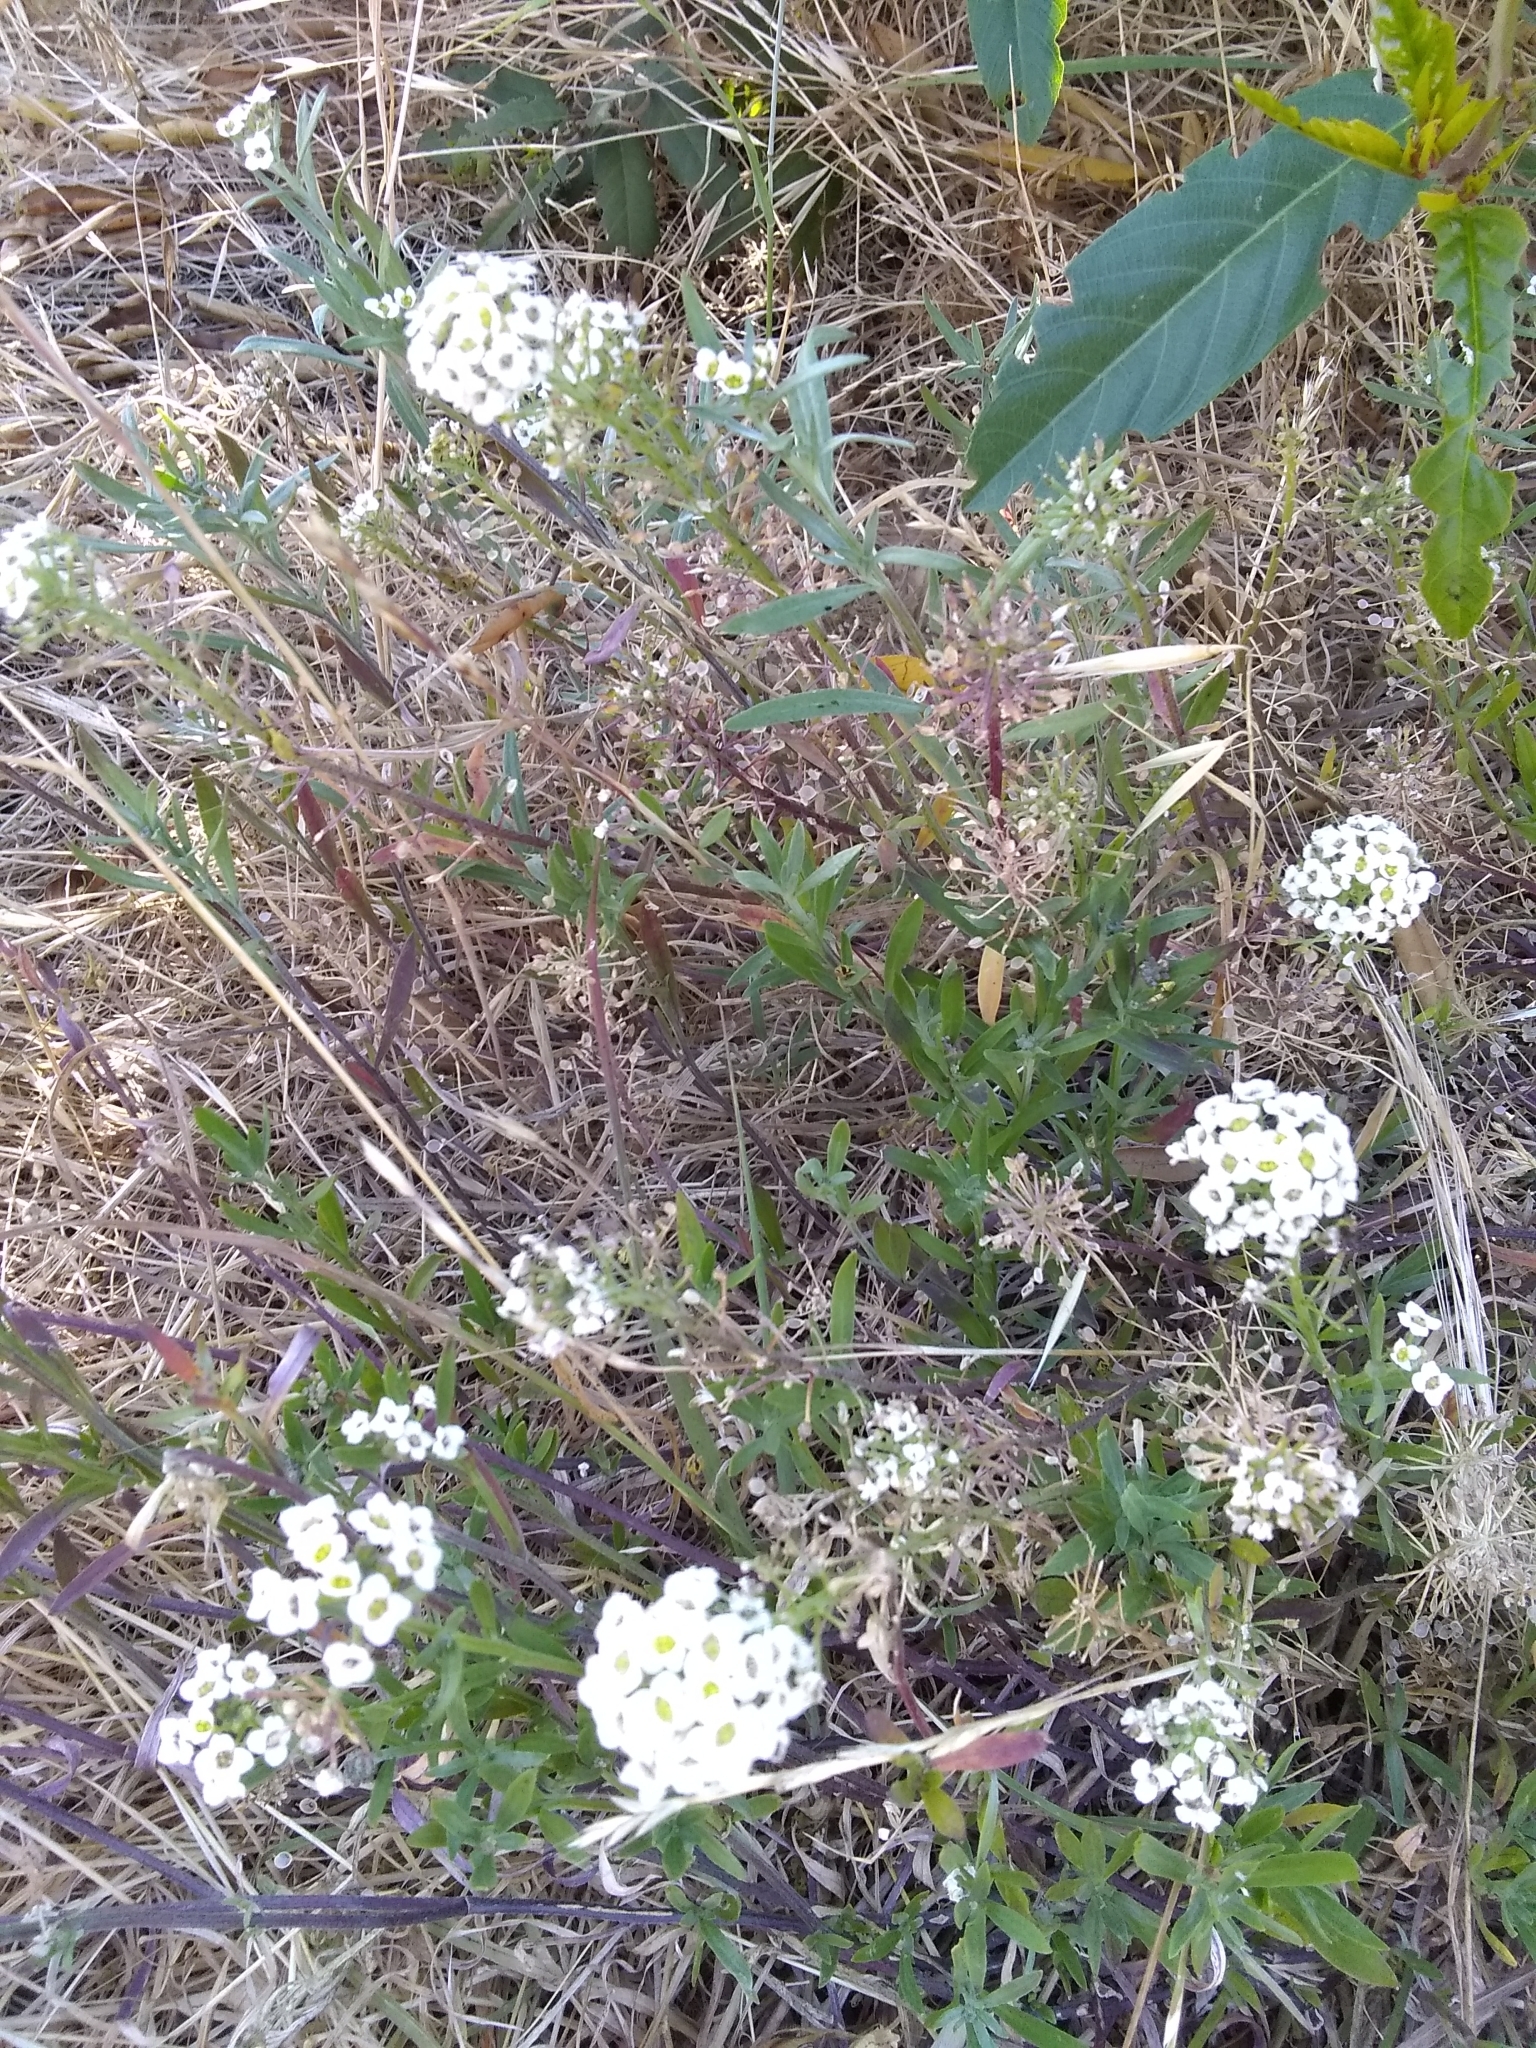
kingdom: Plantae
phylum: Tracheophyta
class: Magnoliopsida
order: Brassicales
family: Brassicaceae
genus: Lobularia
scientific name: Lobularia maritima
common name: Sweet alison
